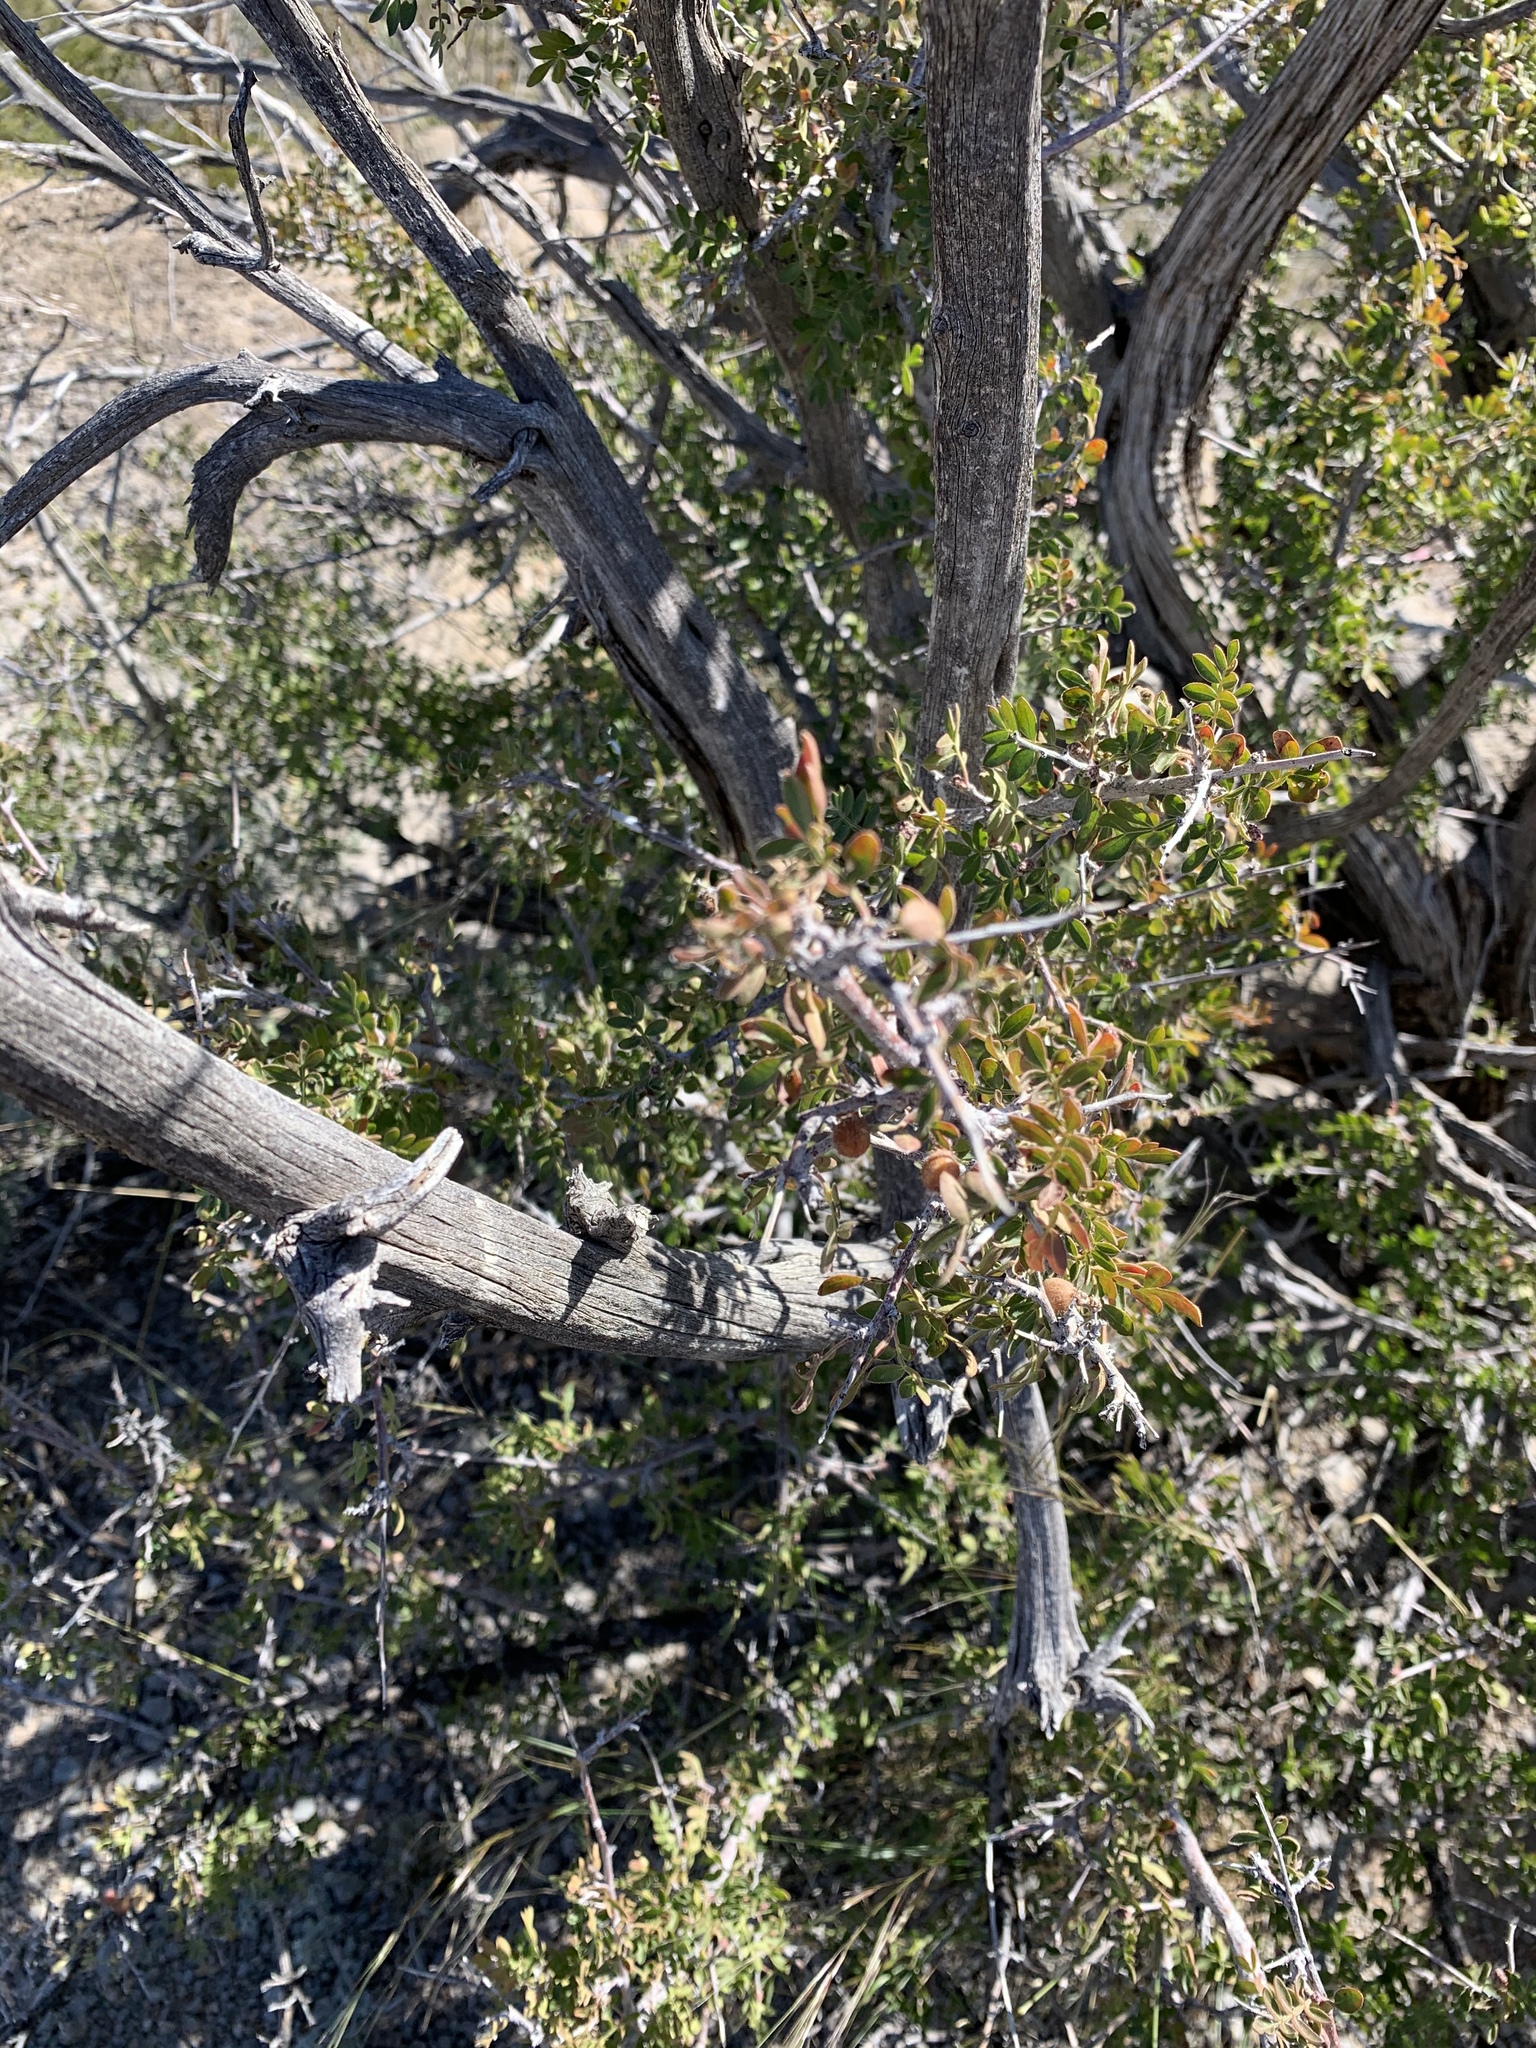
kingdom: Plantae
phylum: Tracheophyta
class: Magnoliopsida
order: Sapindales
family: Anacardiaceae
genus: Rhus
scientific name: Rhus microphylla
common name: Desert sumac
